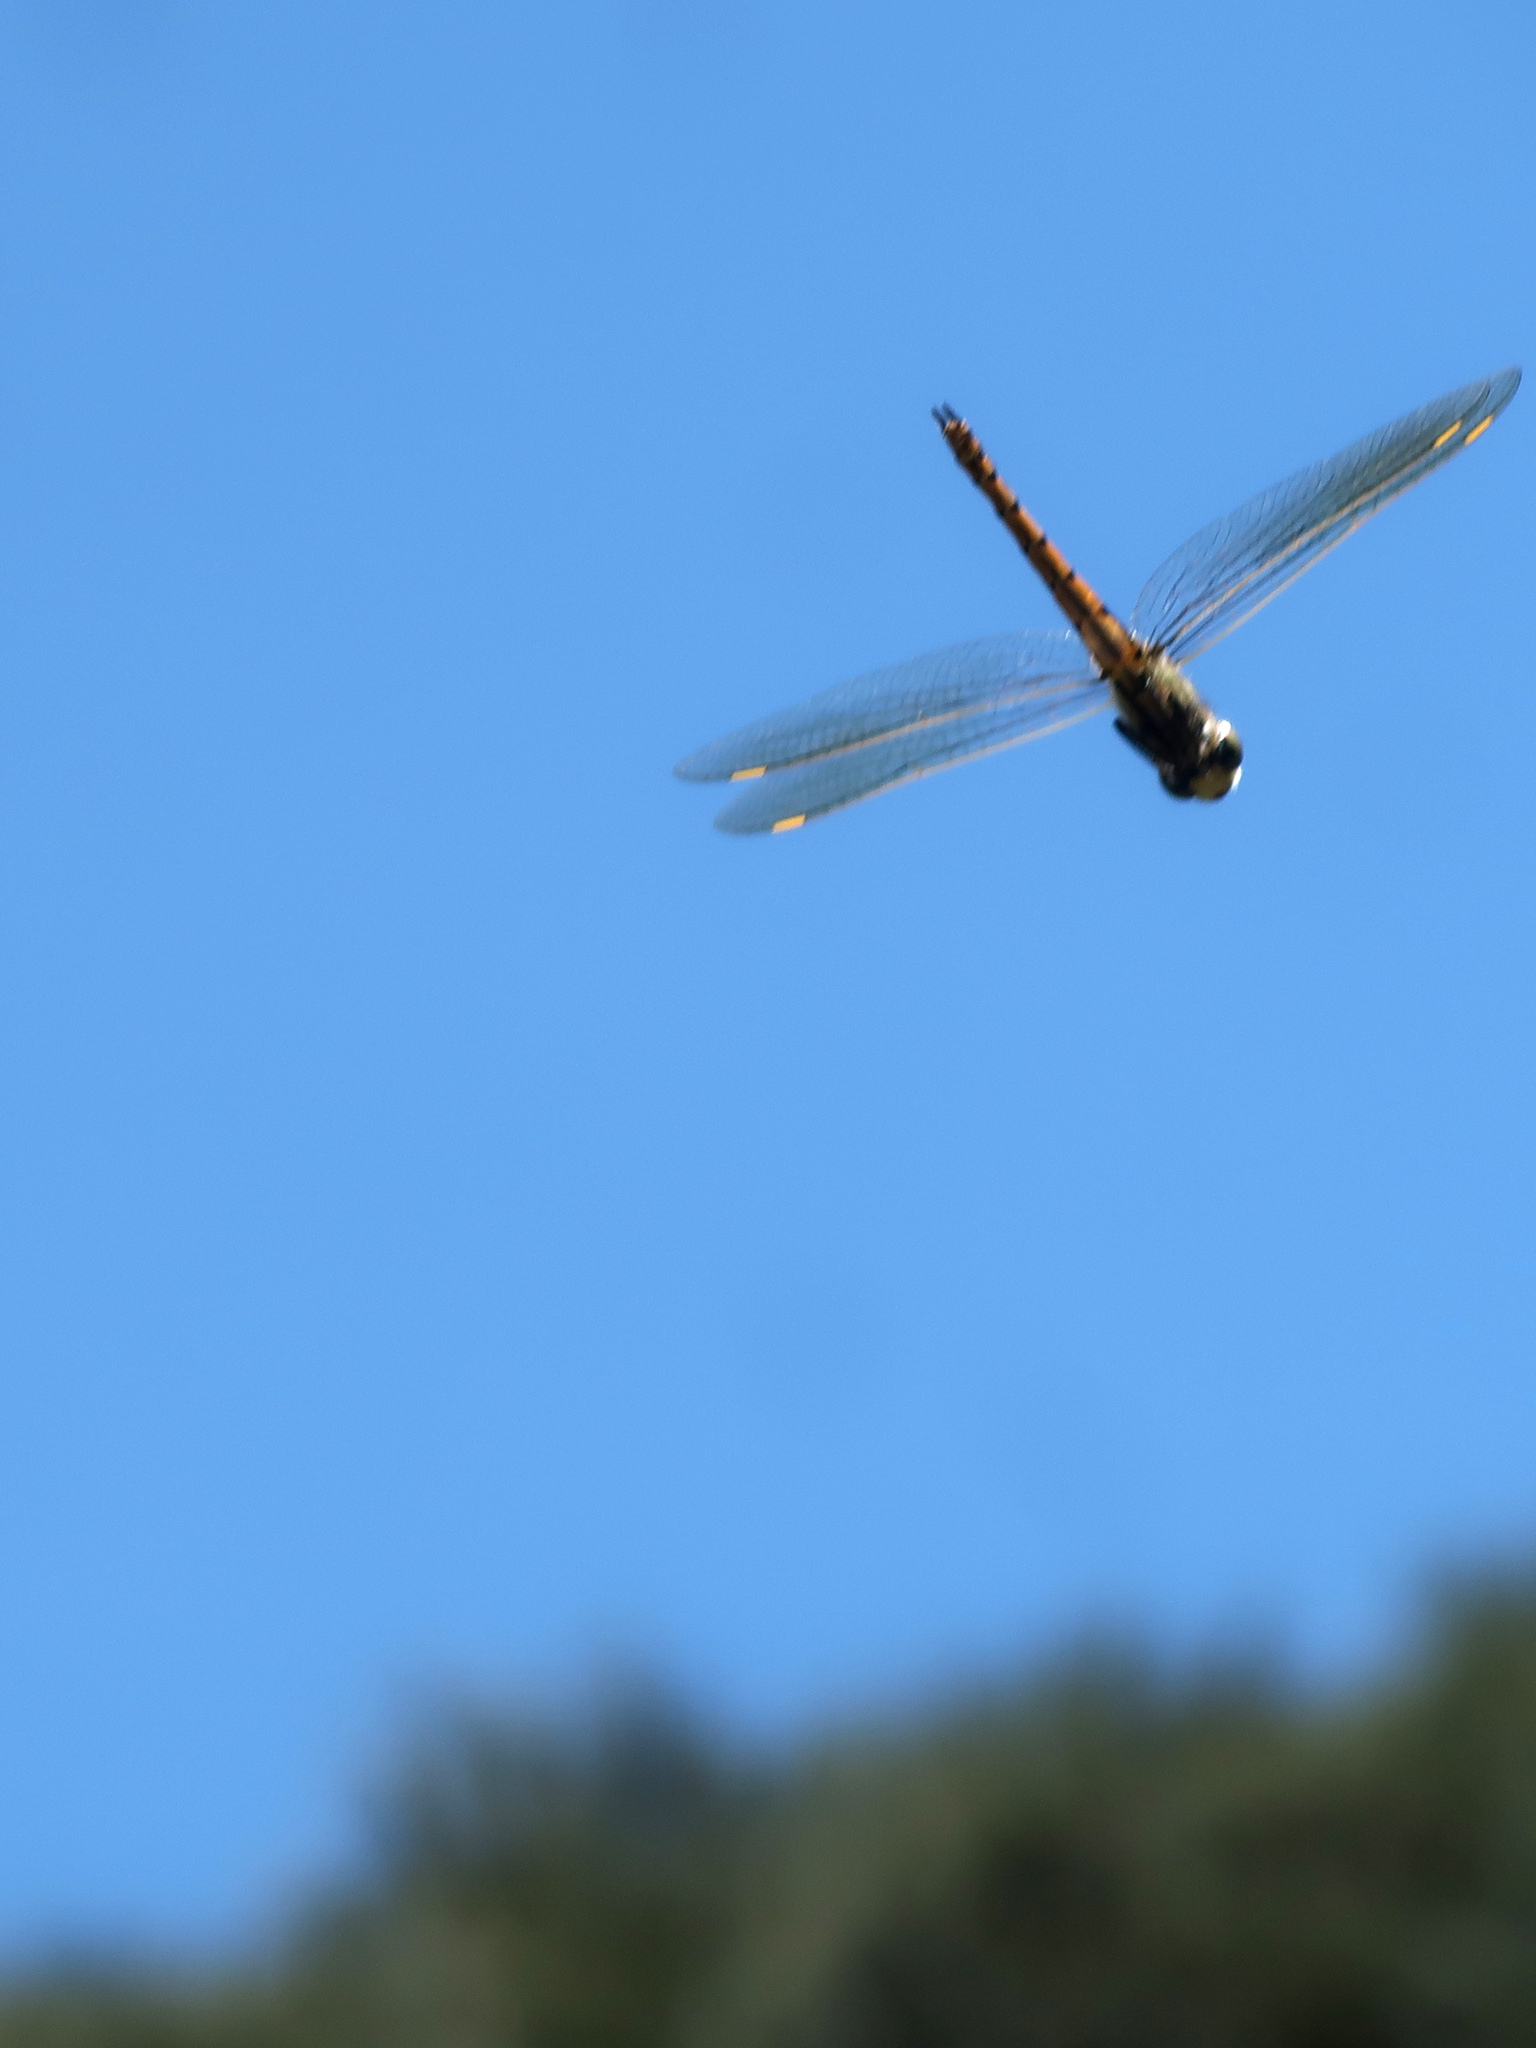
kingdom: Animalia
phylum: Arthropoda
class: Insecta
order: Odonata
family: Corduliidae
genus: Hemicordulia
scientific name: Hemicordulia tau
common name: Tau emerald
